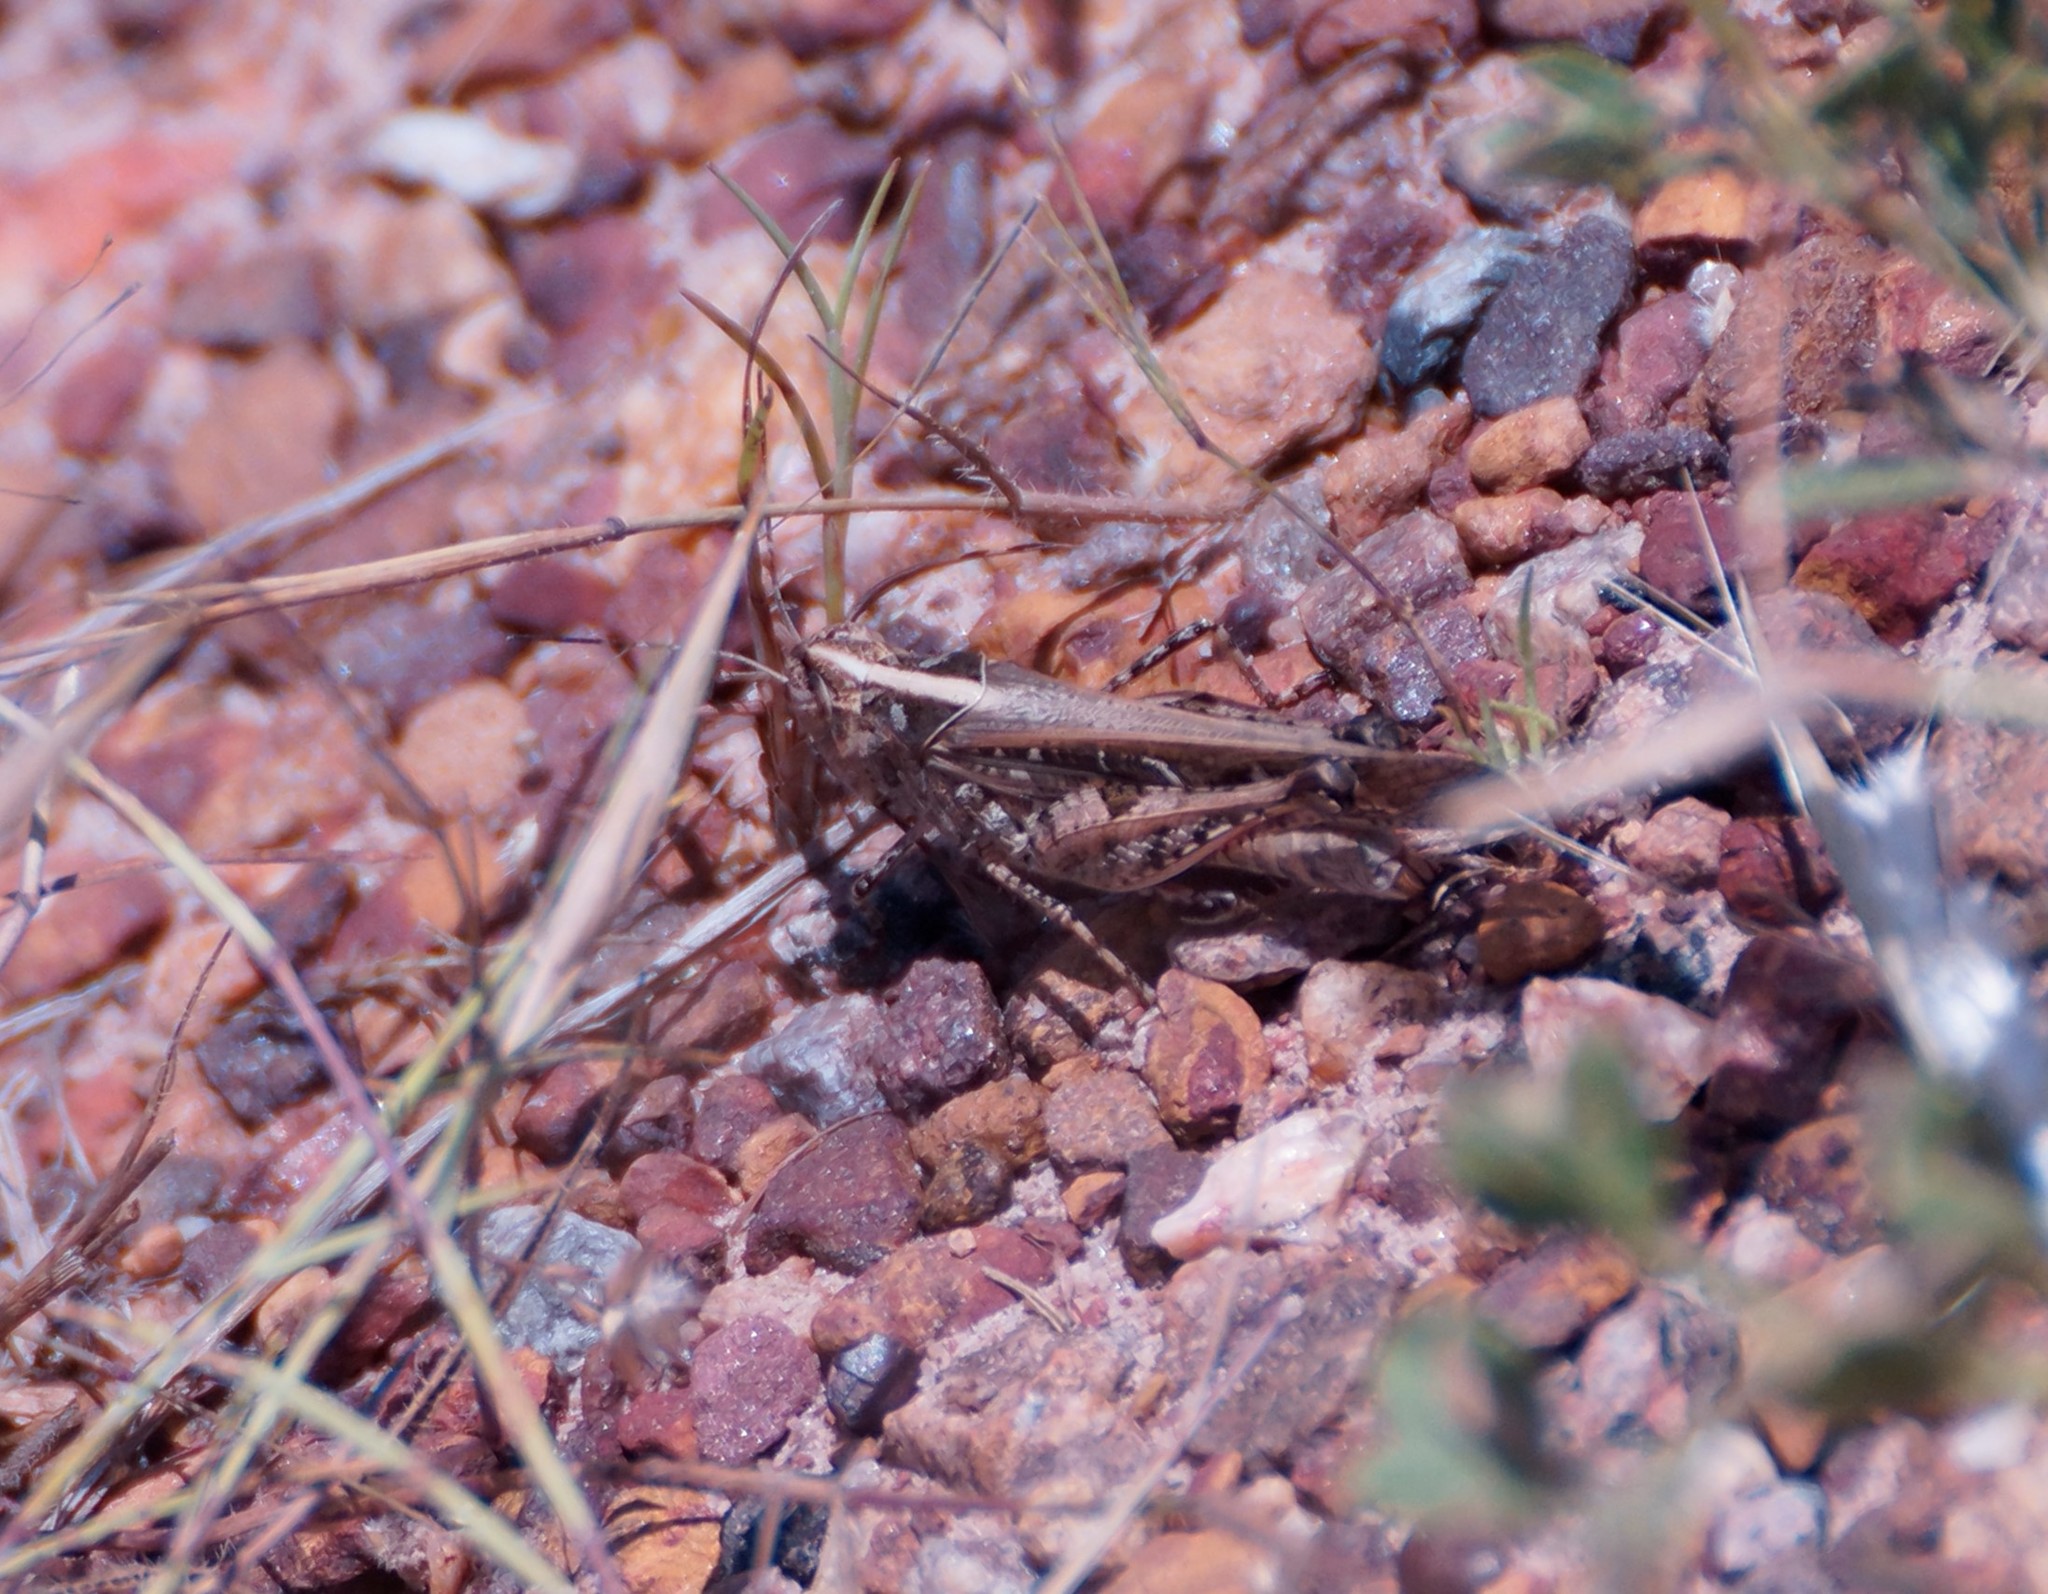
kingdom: Animalia
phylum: Arthropoda
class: Insecta
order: Orthoptera
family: Acrididae
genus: Heteropternis
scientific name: Heteropternis obscurella
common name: Long-legged bandwing
